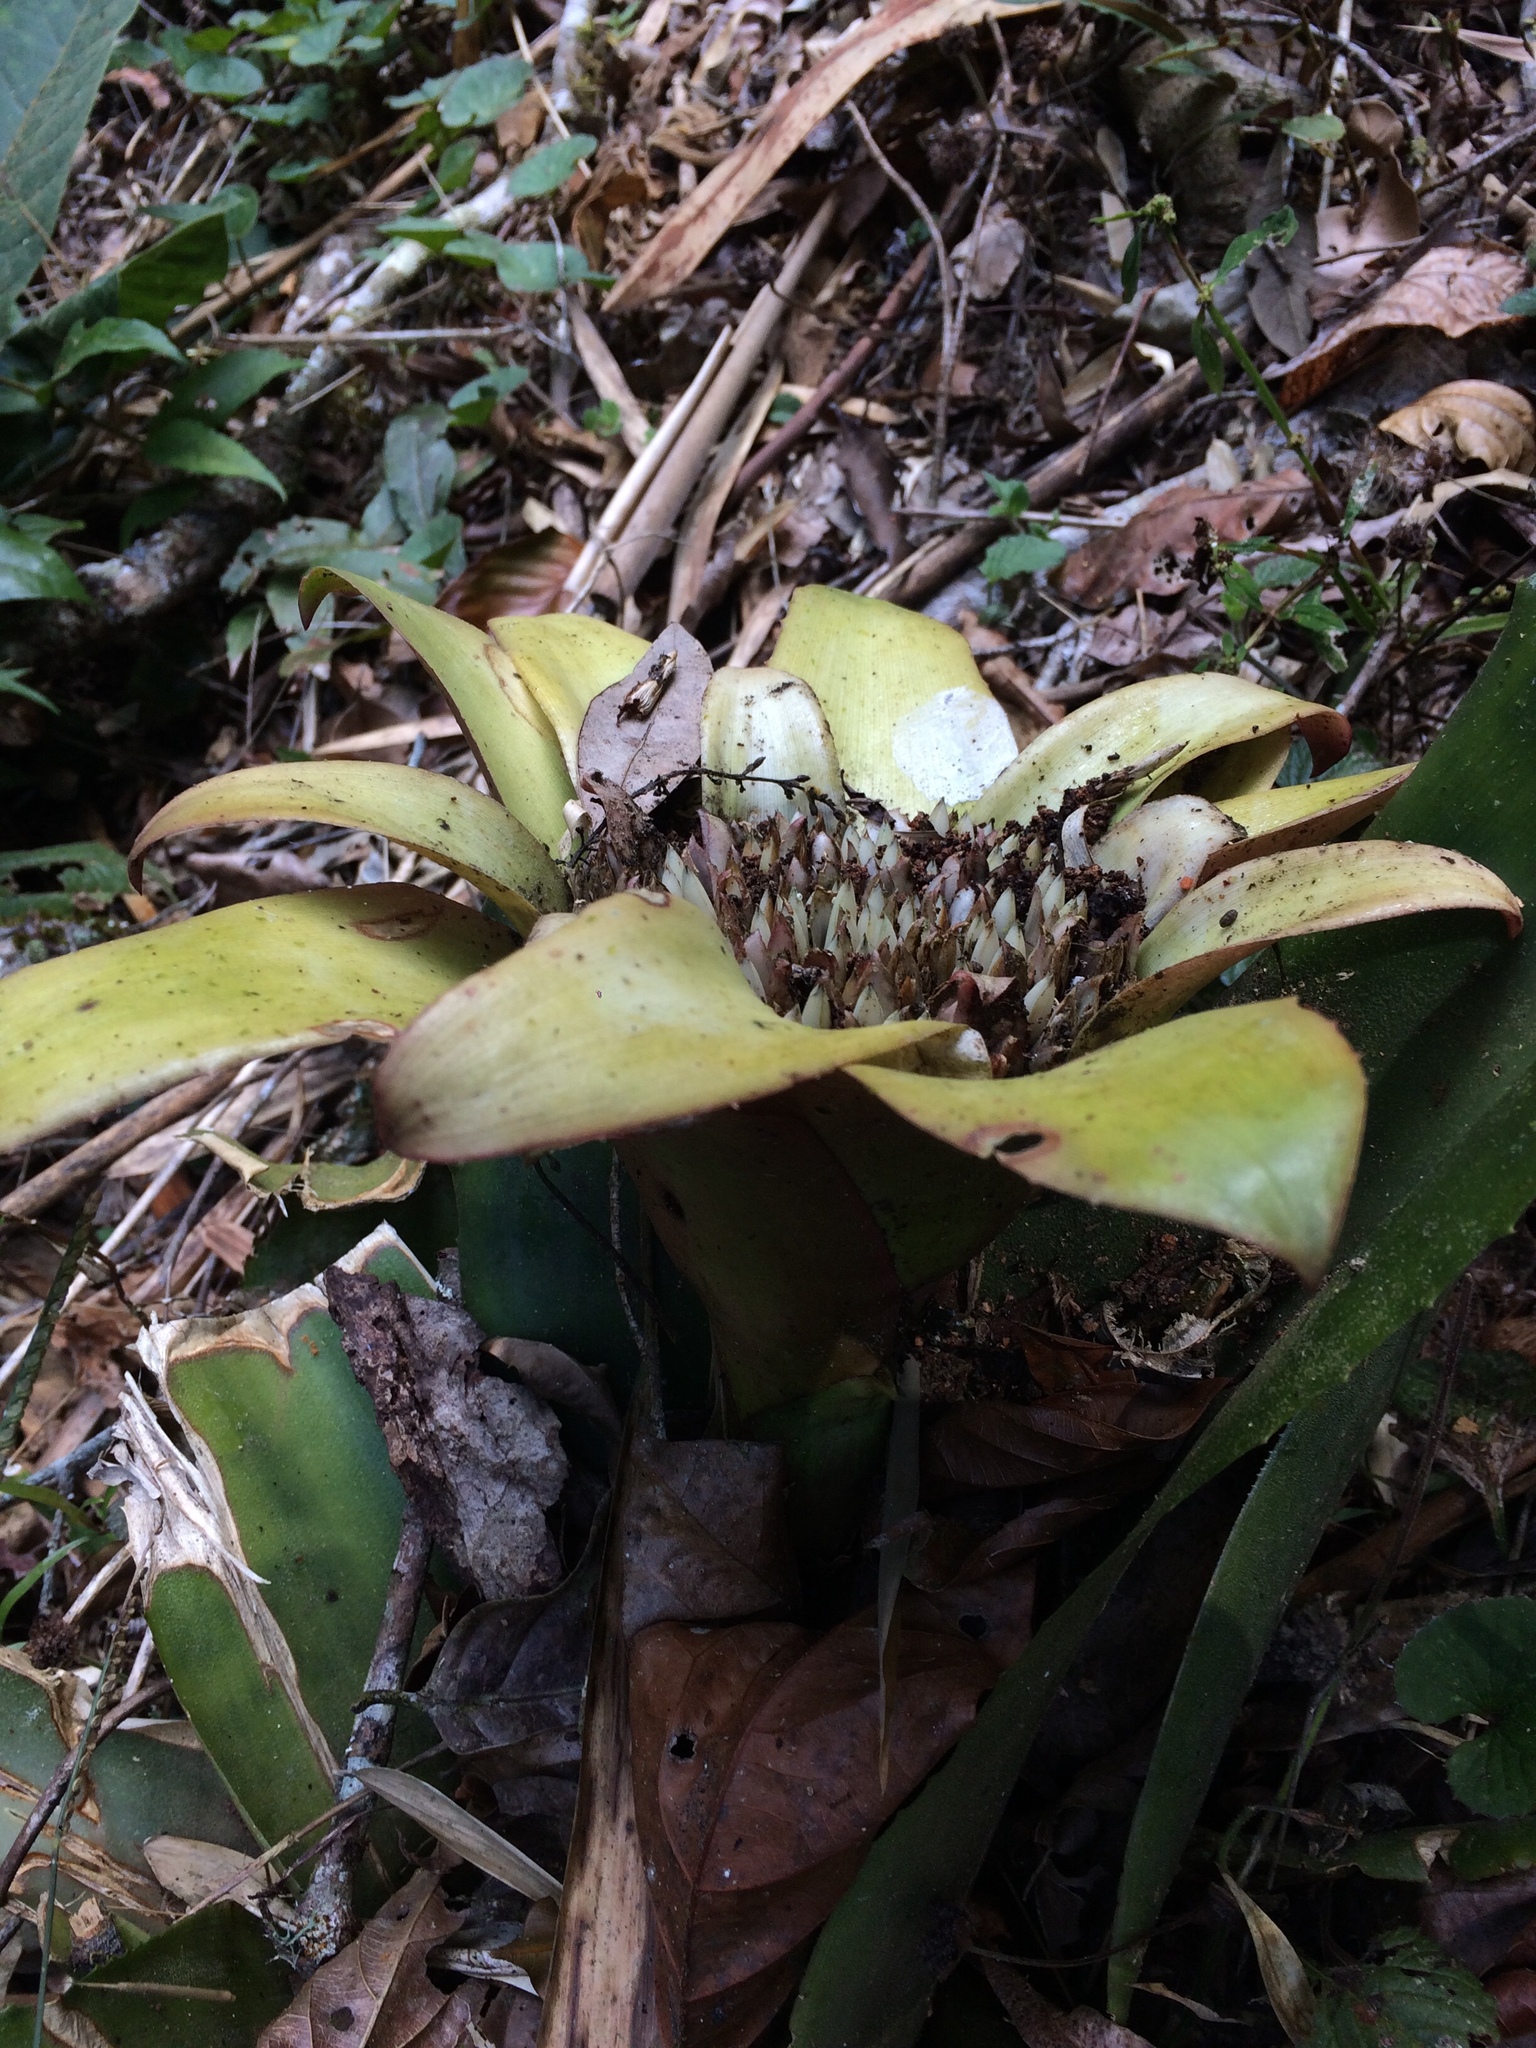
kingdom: Plantae
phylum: Tracheophyta
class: Liliopsida
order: Poales
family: Bromeliaceae
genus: Edmundoa
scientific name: Edmundoa lindenii
